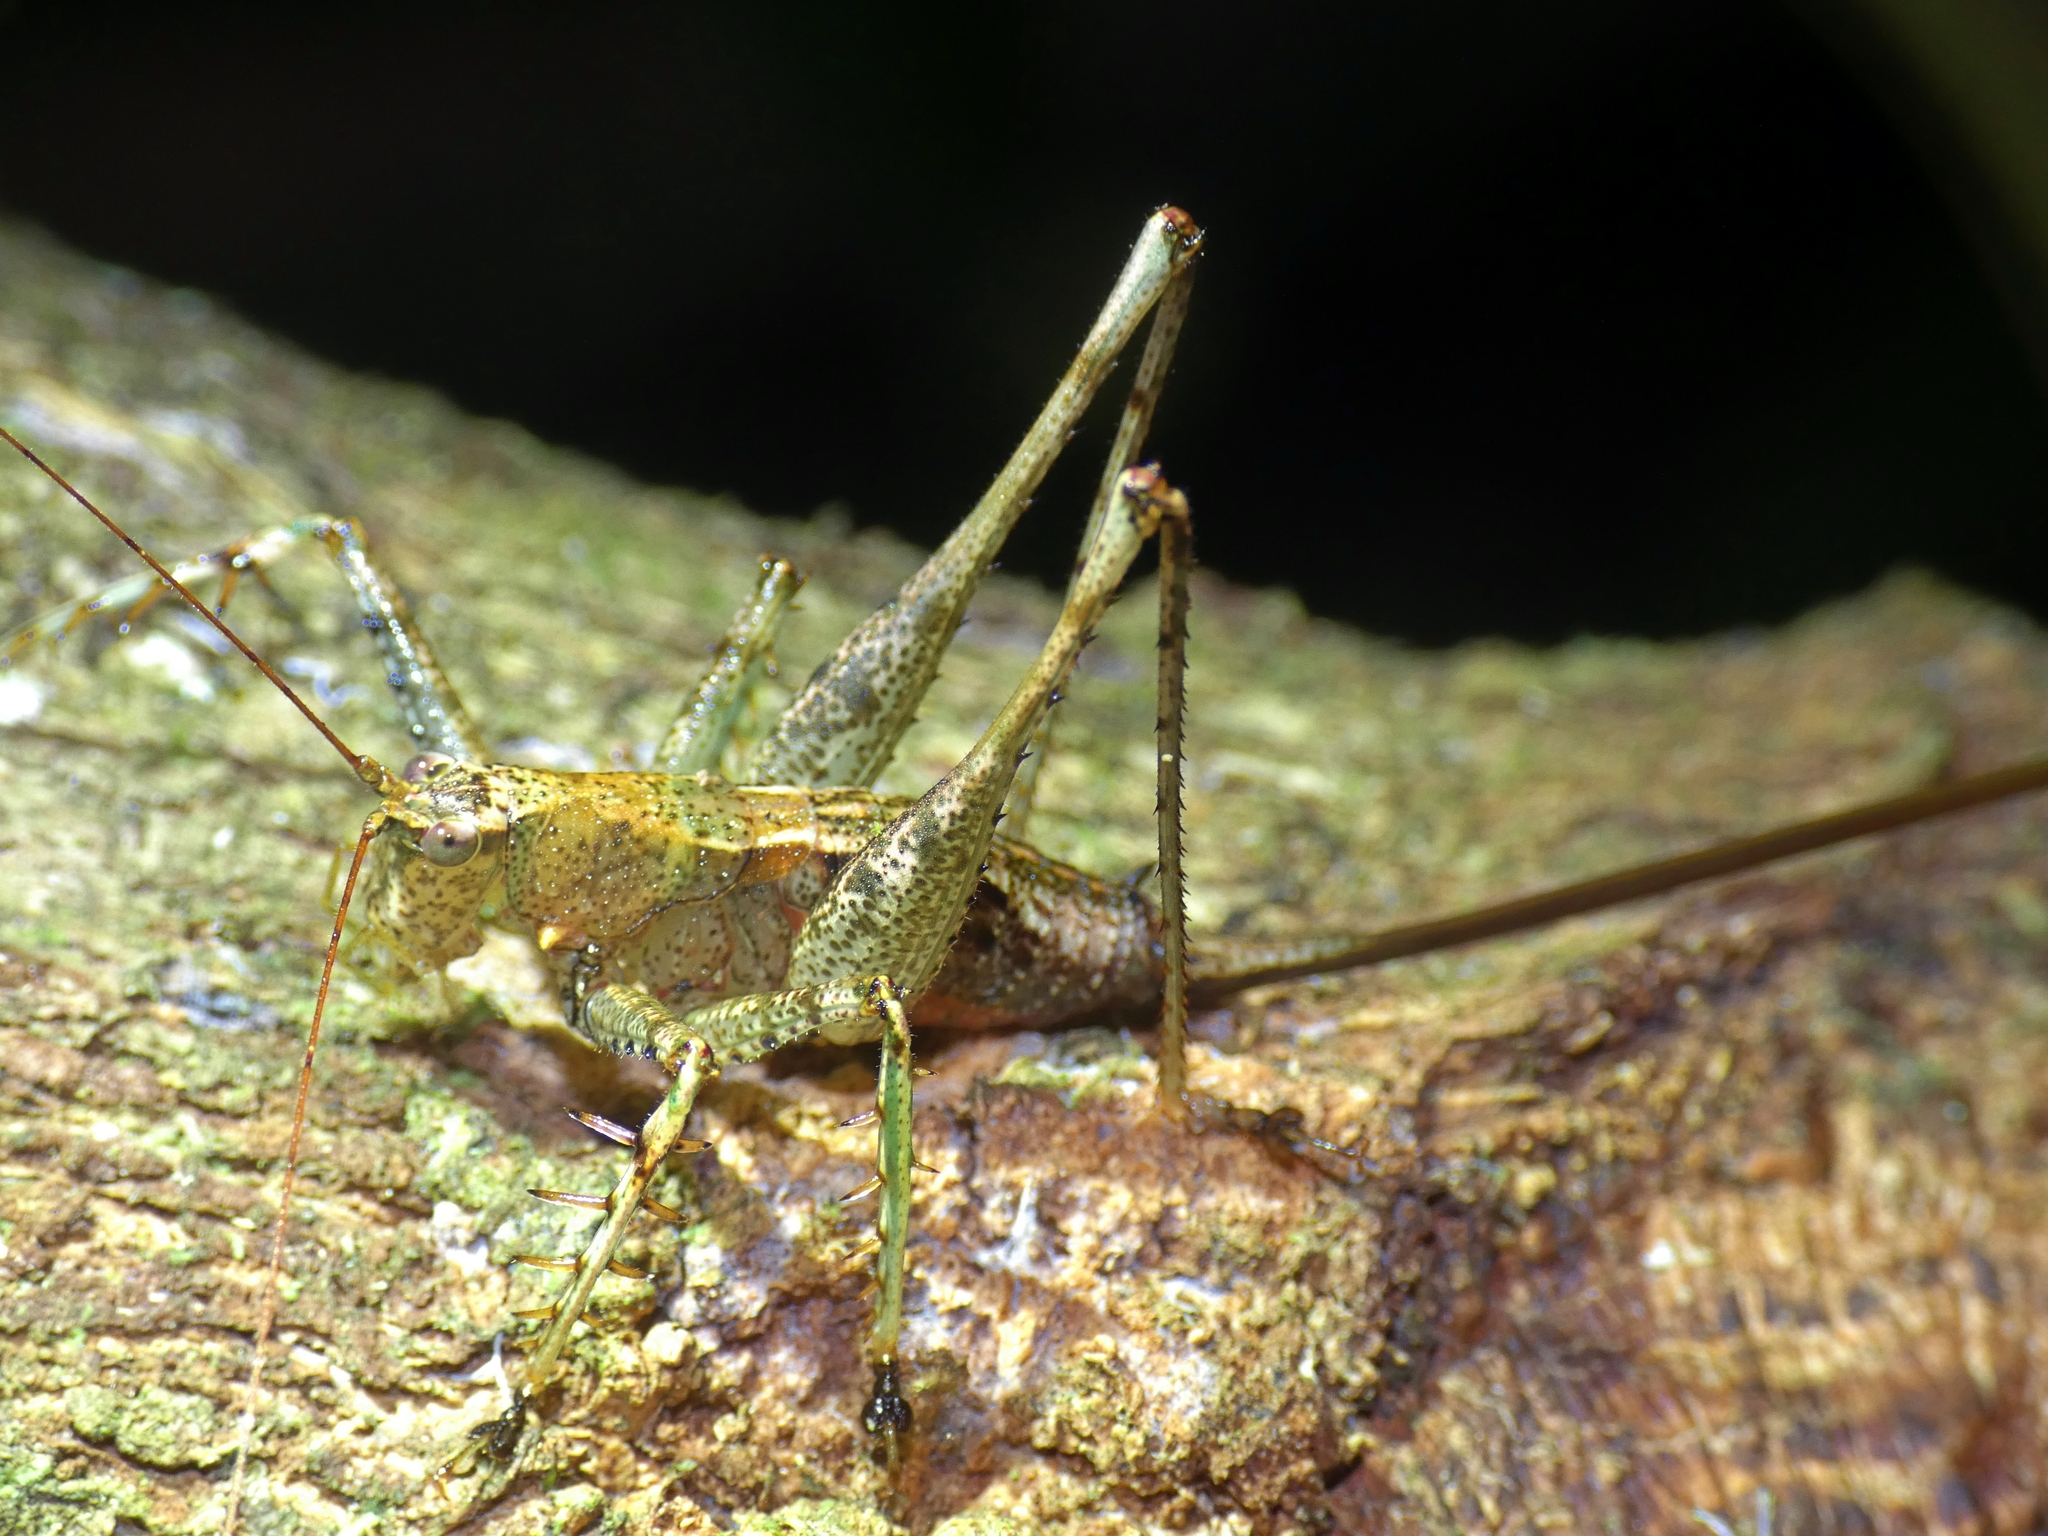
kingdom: Animalia
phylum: Arthropoda
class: Insecta
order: Orthoptera
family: Tettigoniidae
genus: Xingbaoia
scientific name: Xingbaoia karakara
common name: Jin's ginger katydid
